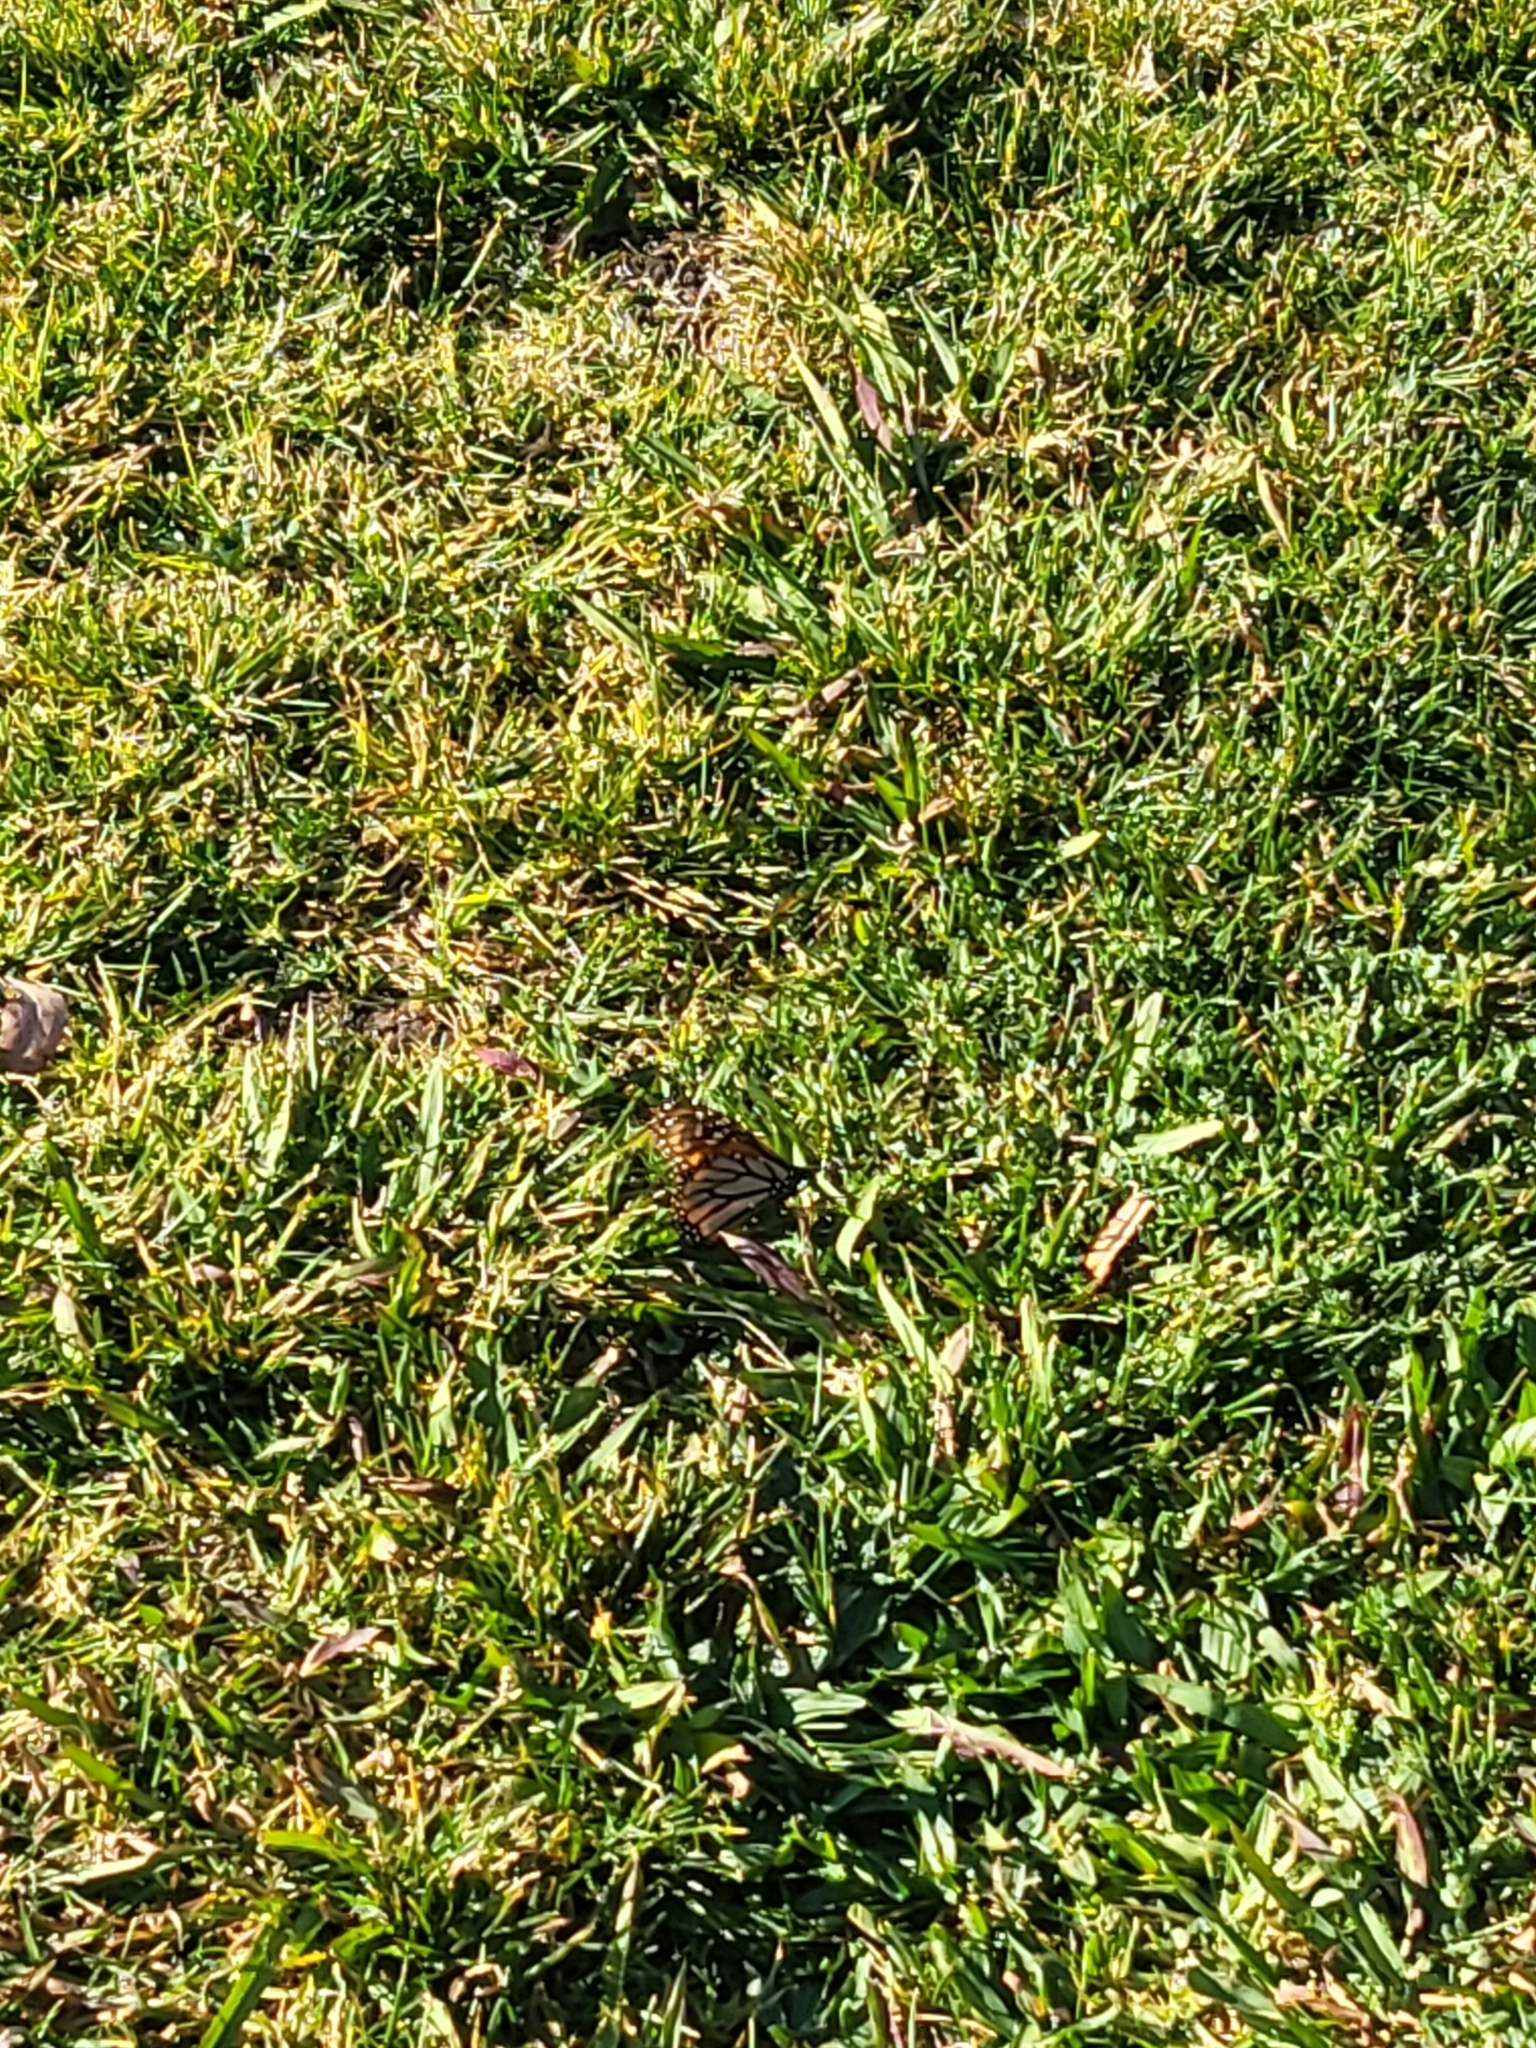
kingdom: Animalia
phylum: Arthropoda
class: Insecta
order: Lepidoptera
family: Nymphalidae
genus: Danaus
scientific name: Danaus plexippus
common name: Monarch
